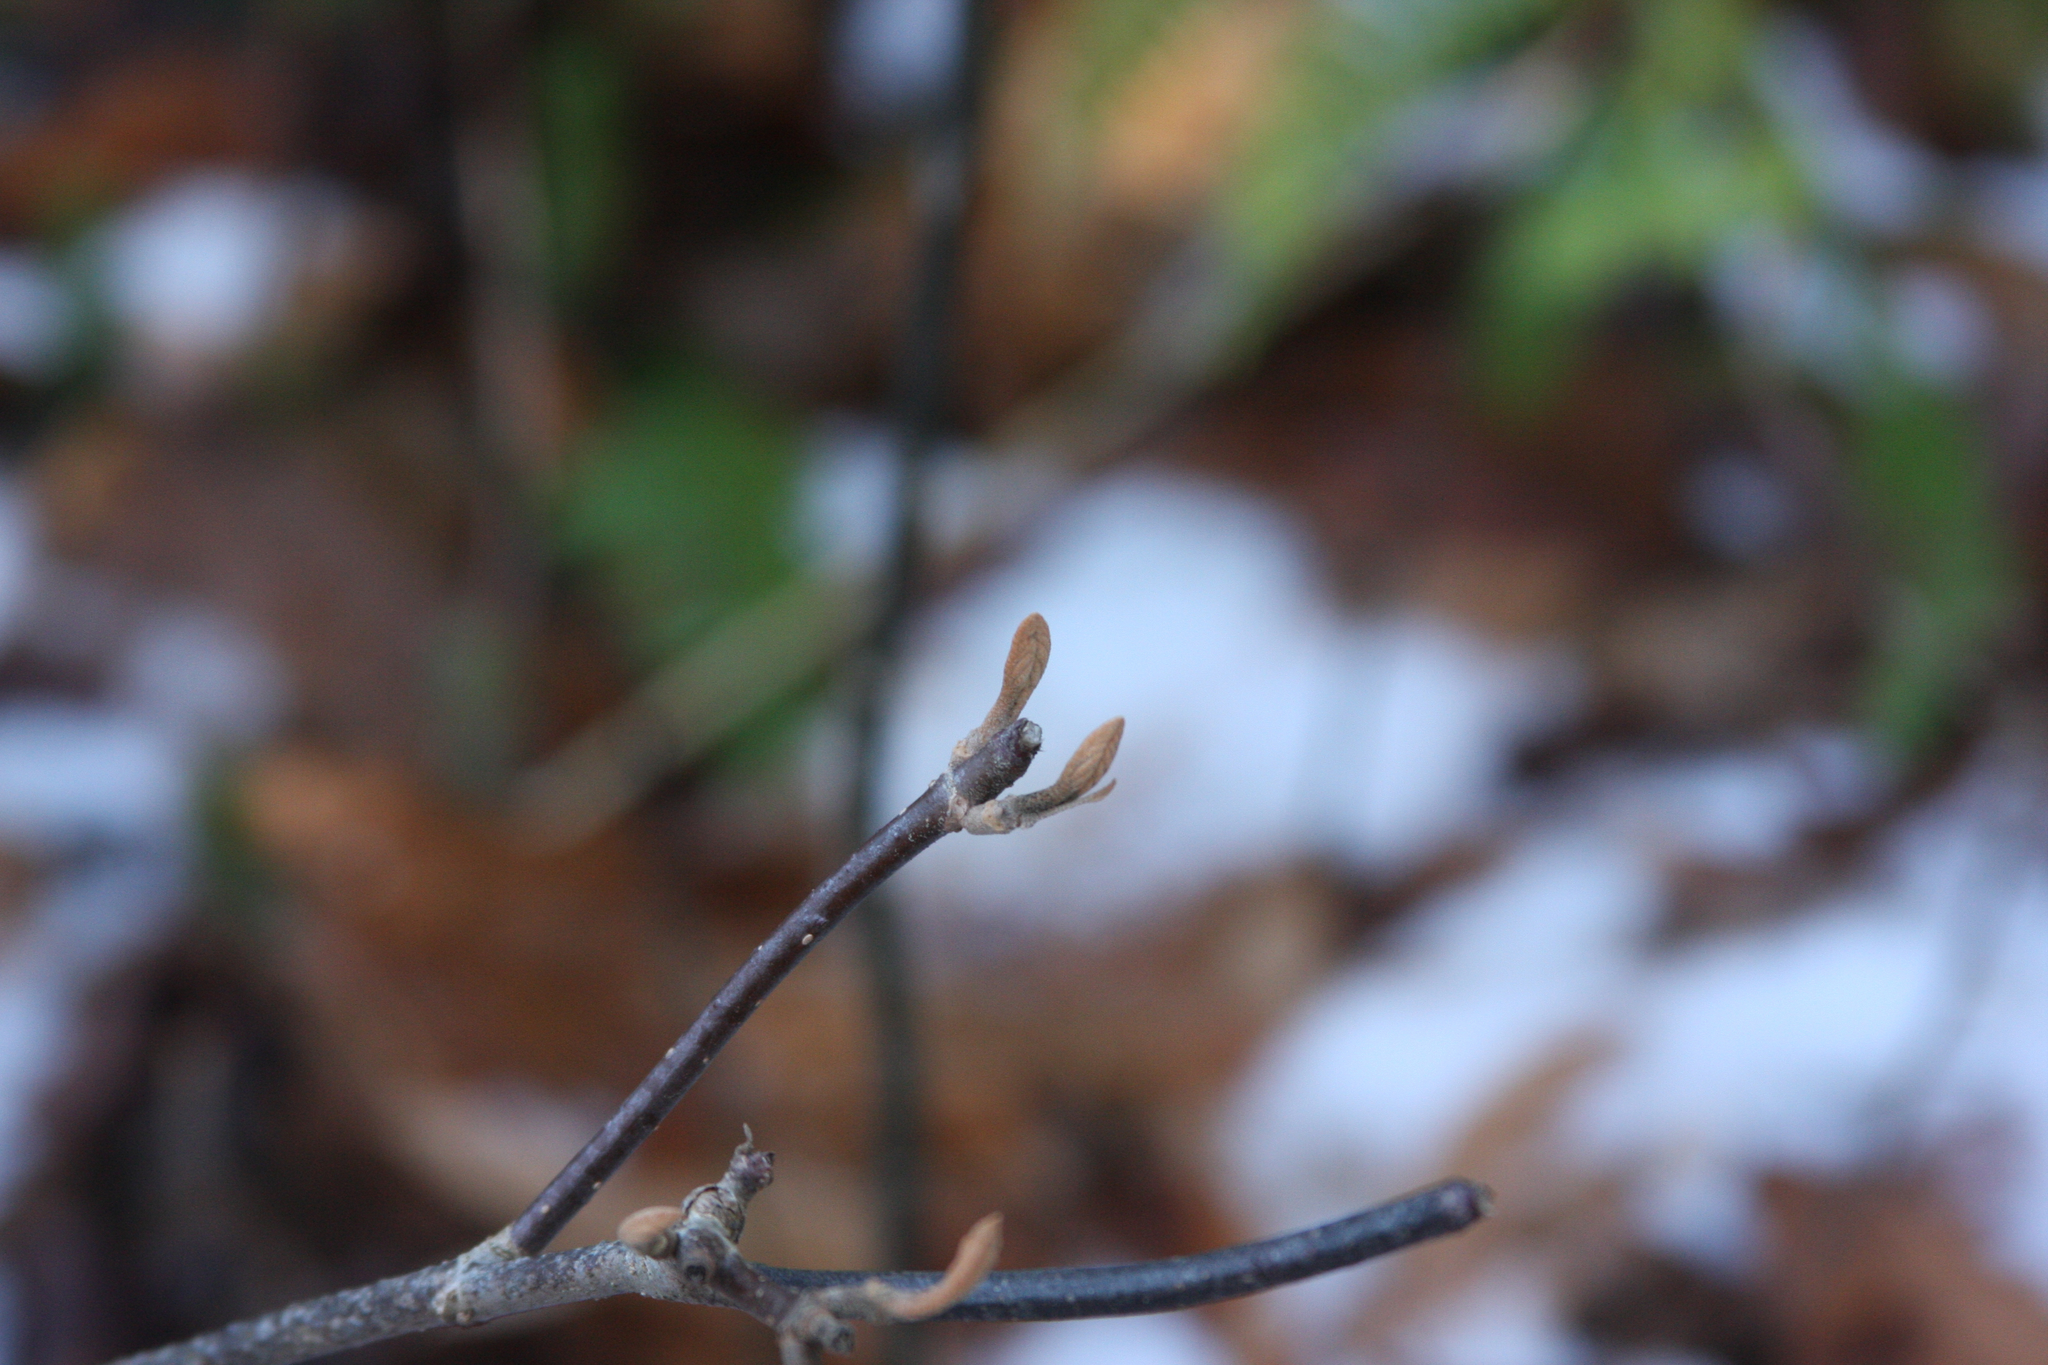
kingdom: Plantae
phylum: Tracheophyta
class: Magnoliopsida
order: Dipsacales
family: Viburnaceae
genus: Viburnum
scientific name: Viburnum lantanoides
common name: Hobblebush
